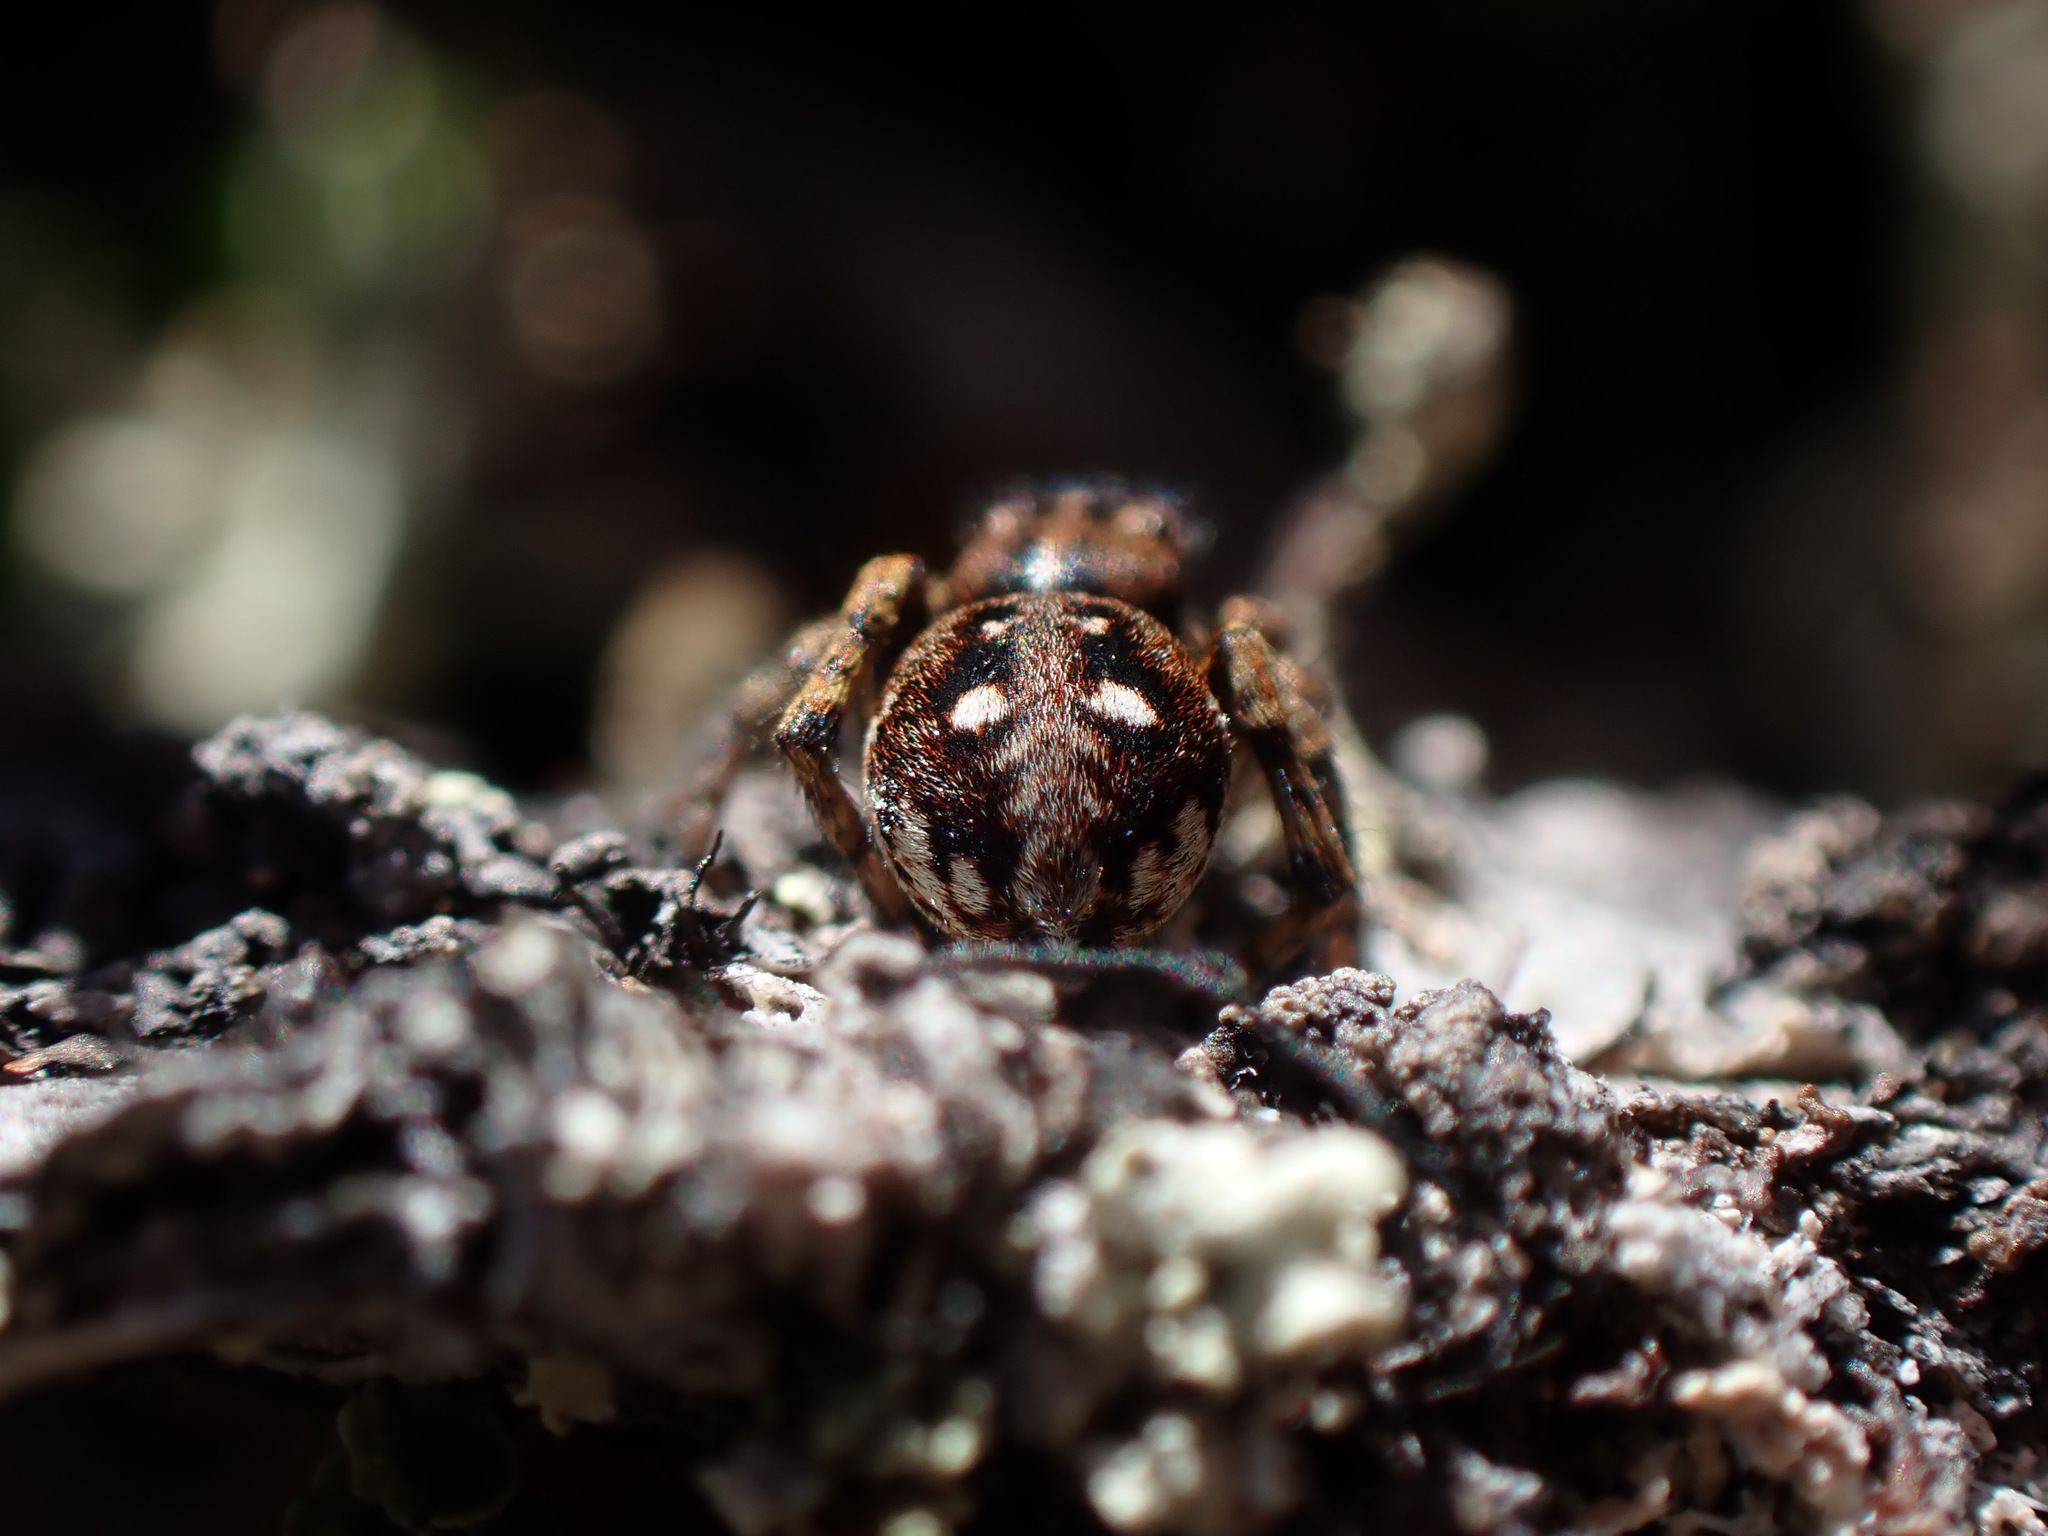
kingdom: Animalia
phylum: Arthropoda
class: Arachnida
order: Araneae
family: Salticidae
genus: Sittisax
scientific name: Sittisax ranieri
